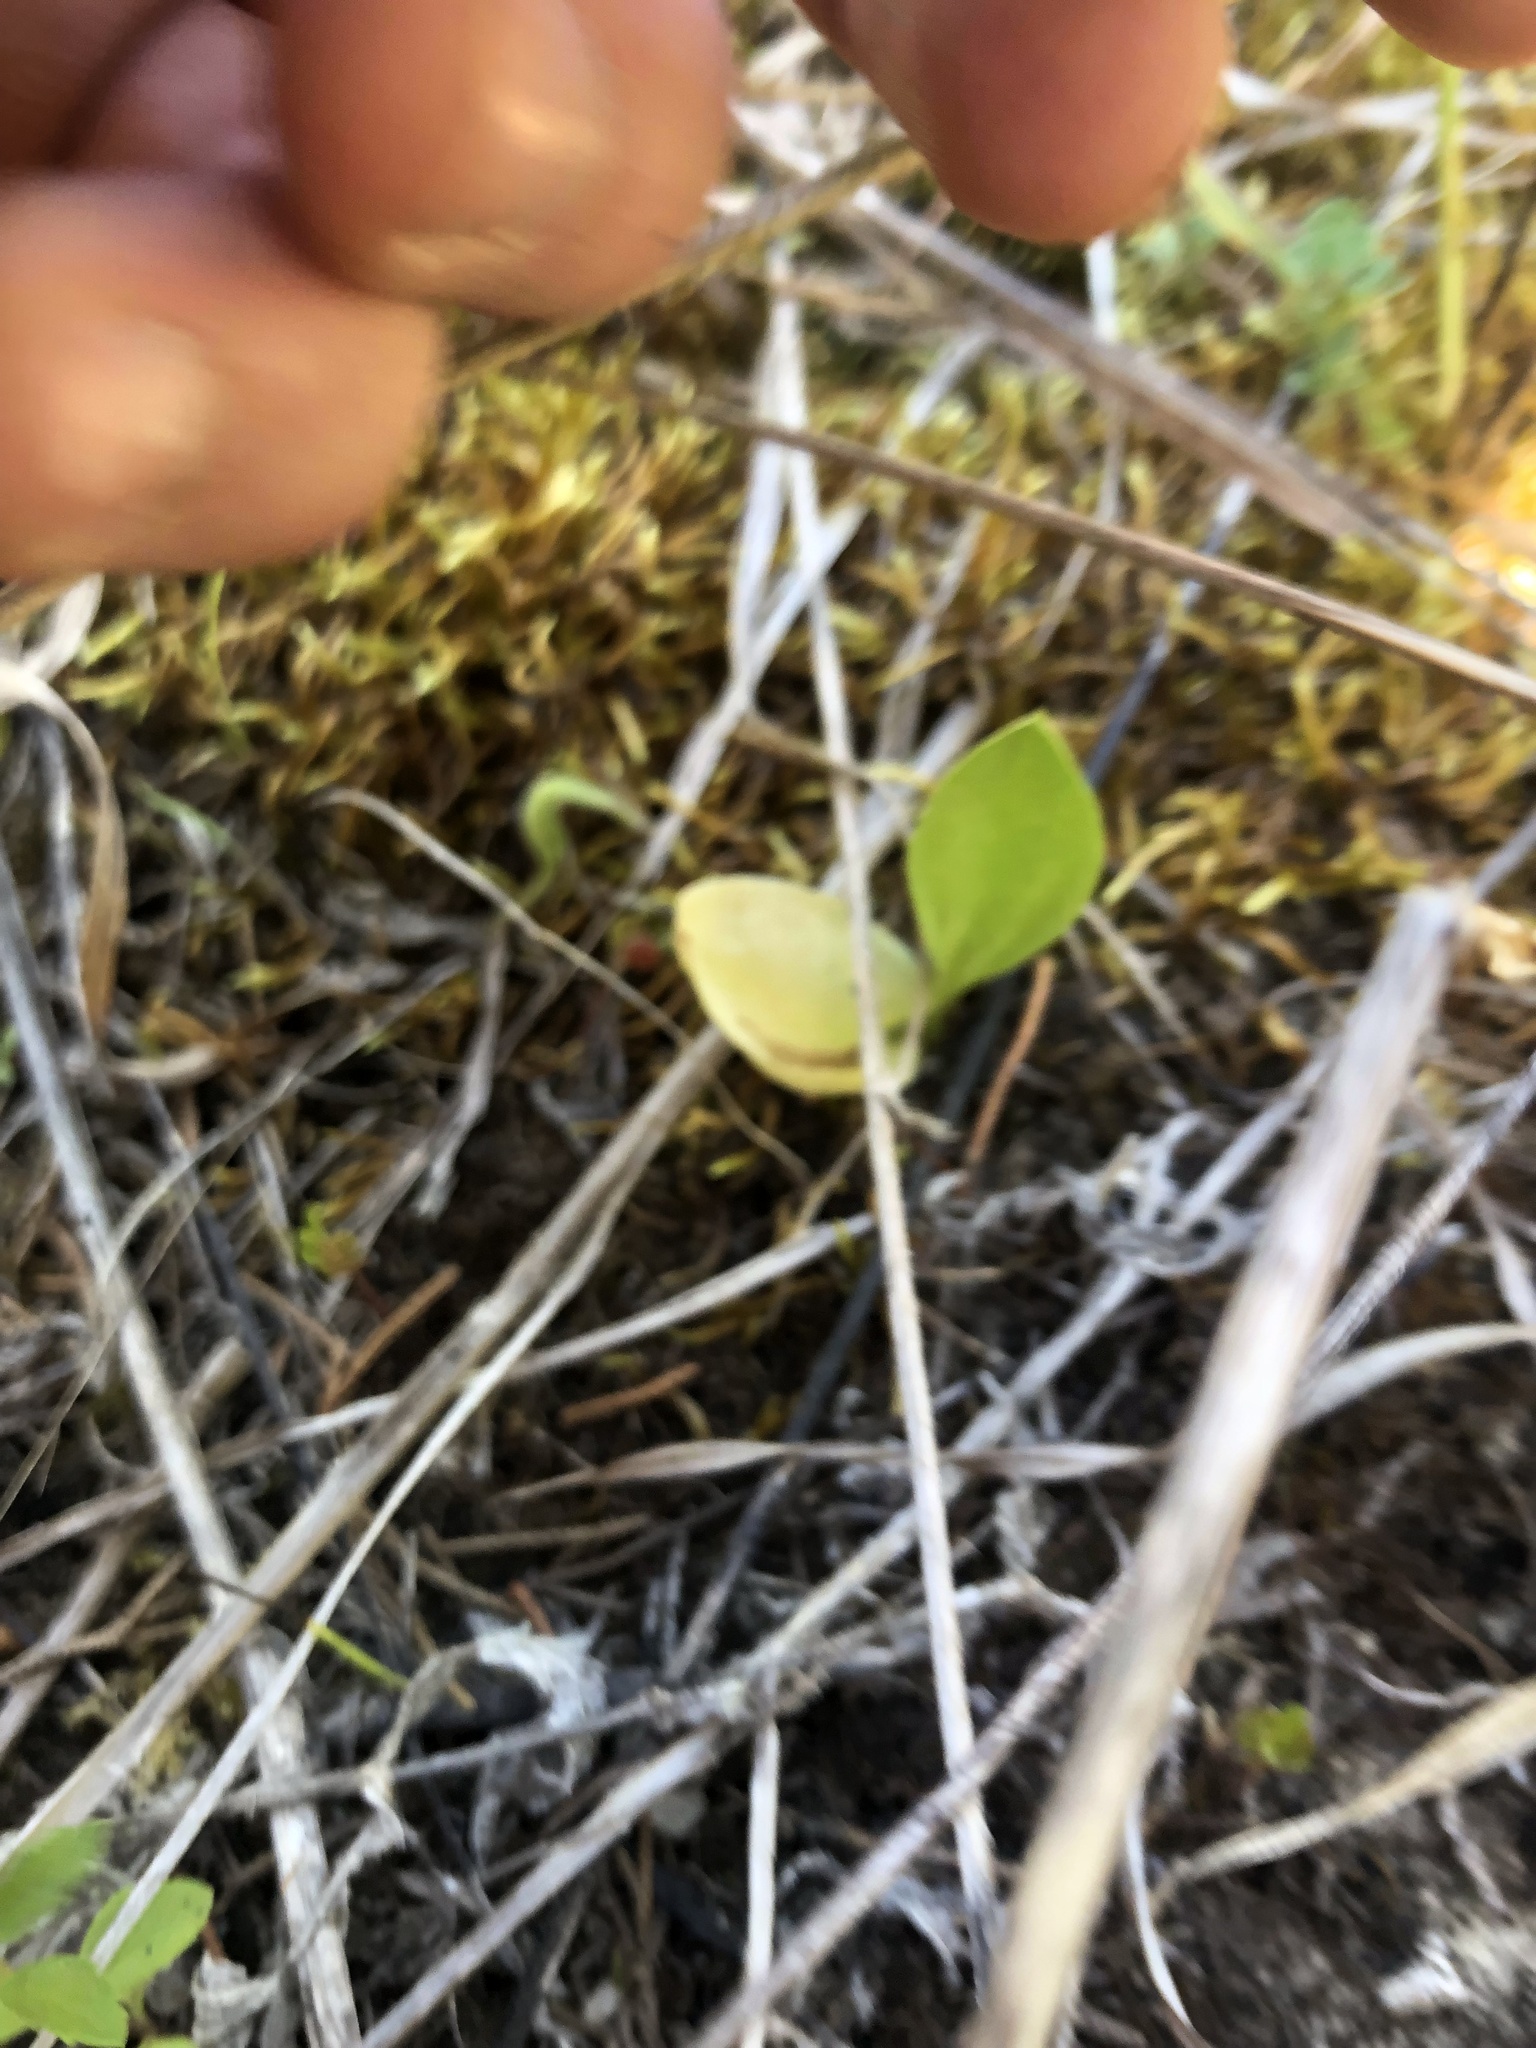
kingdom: Plantae
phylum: Tracheophyta
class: Polypodiopsida
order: Ophioglossales
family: Ophioglossaceae
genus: Ophioglossum
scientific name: Ophioglossum engelmannii
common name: Limestone adder's-tongue
